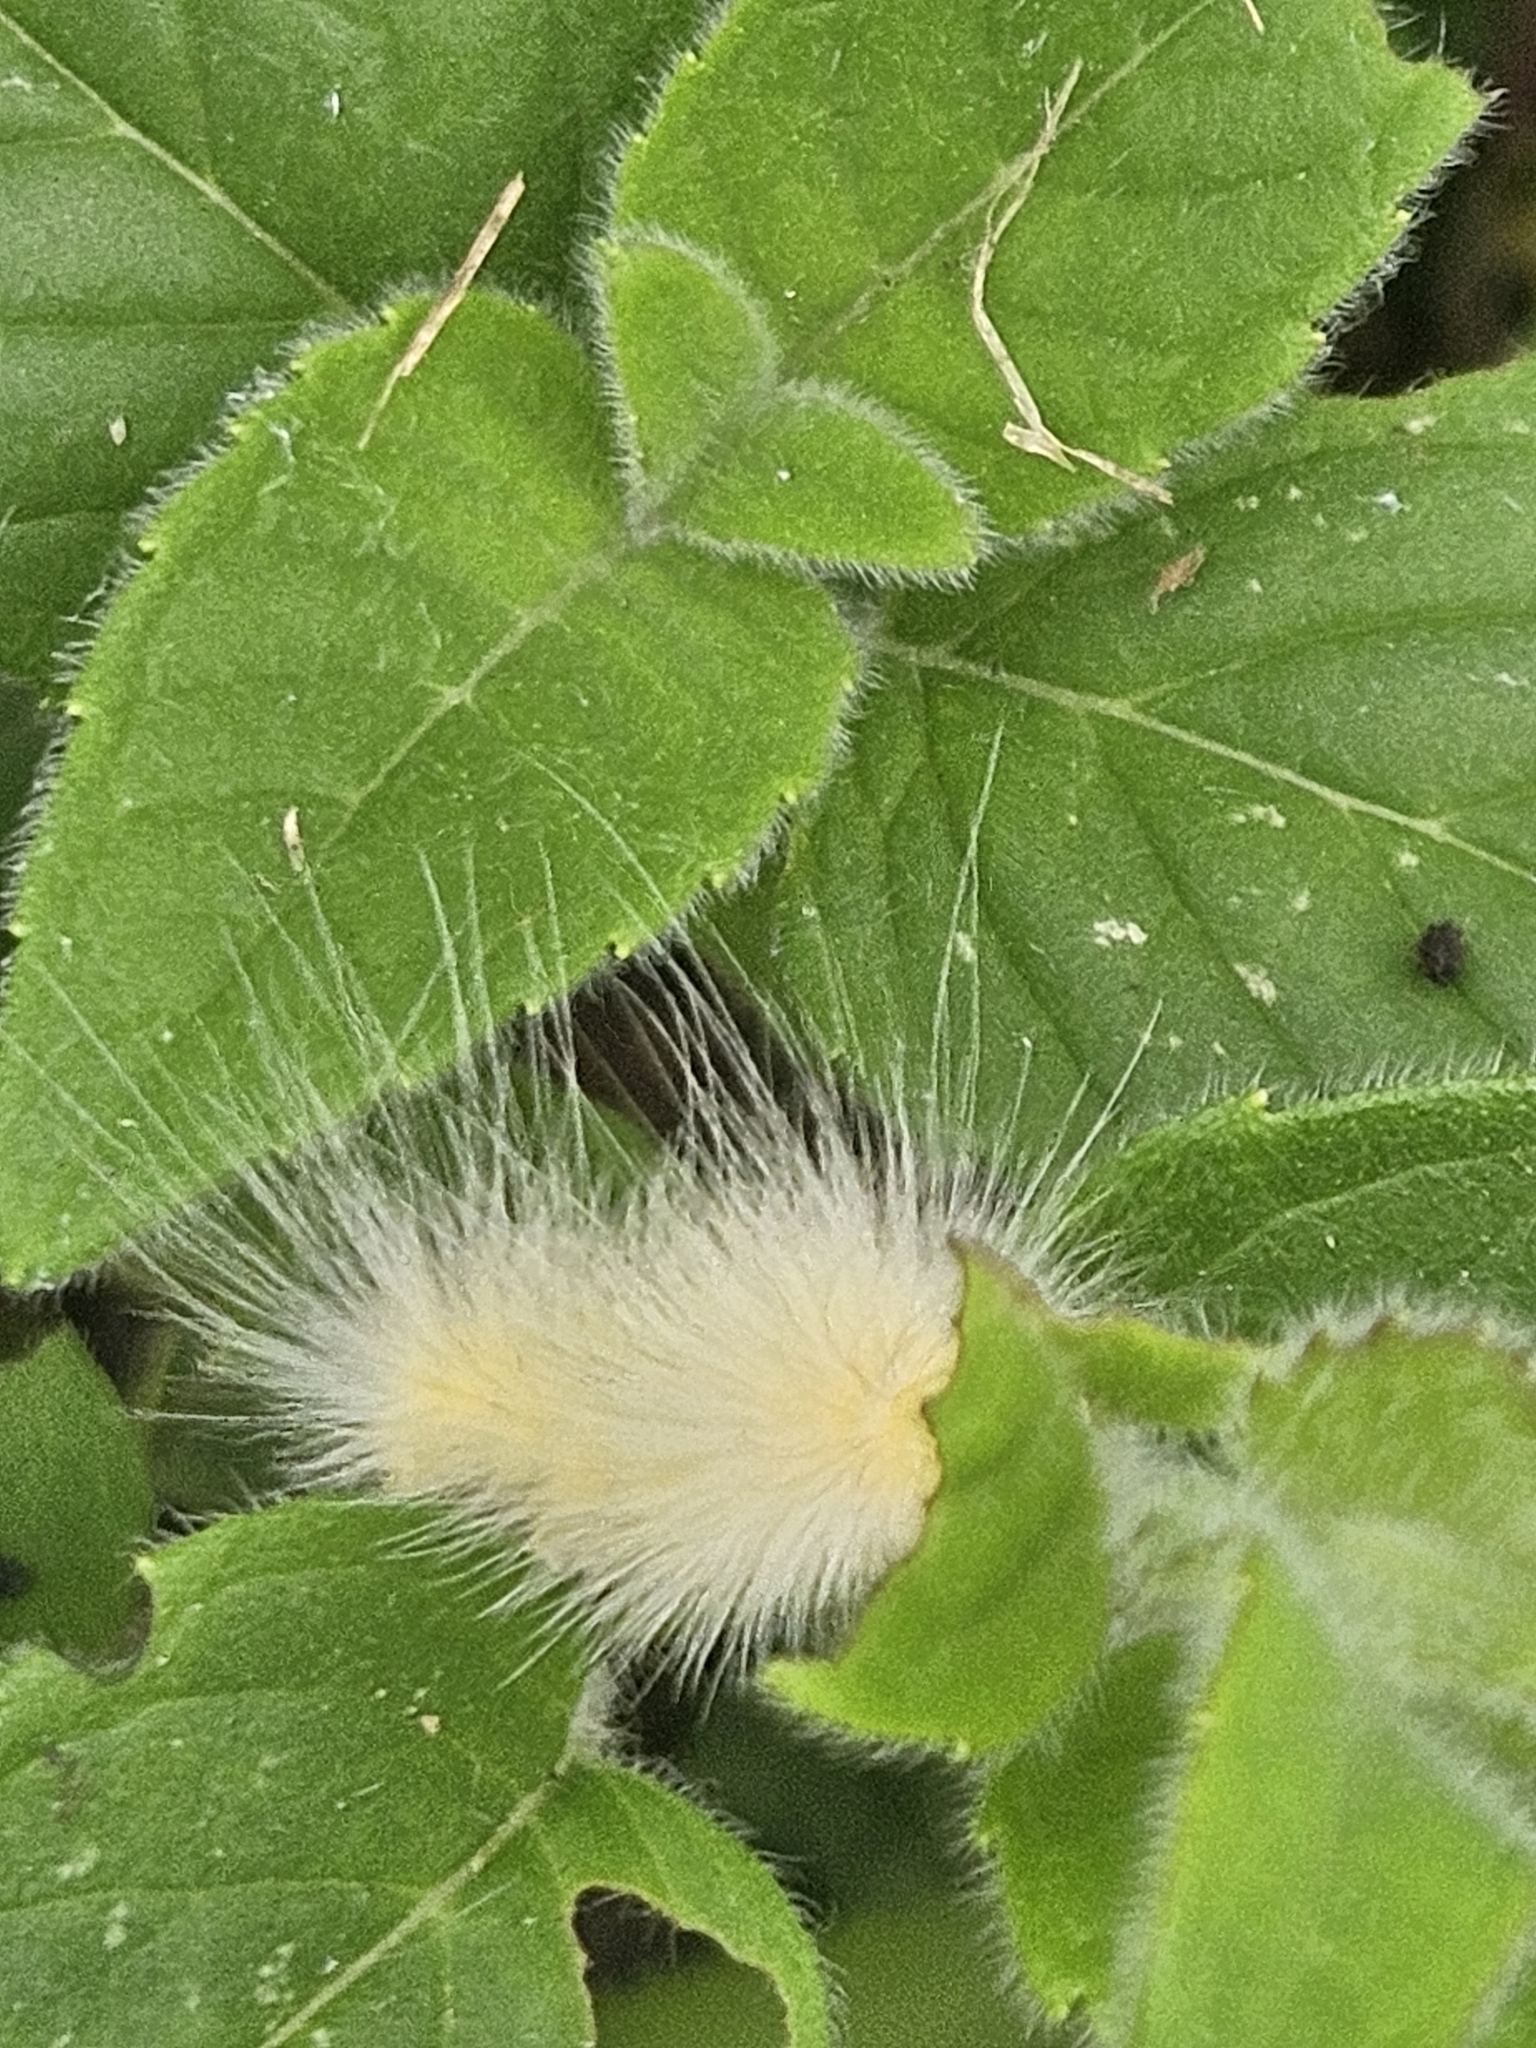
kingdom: Animalia
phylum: Arthropoda
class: Insecta
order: Lepidoptera
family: Erebidae
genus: Spilosoma
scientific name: Spilosoma virginica
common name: Virginia tiger moth
